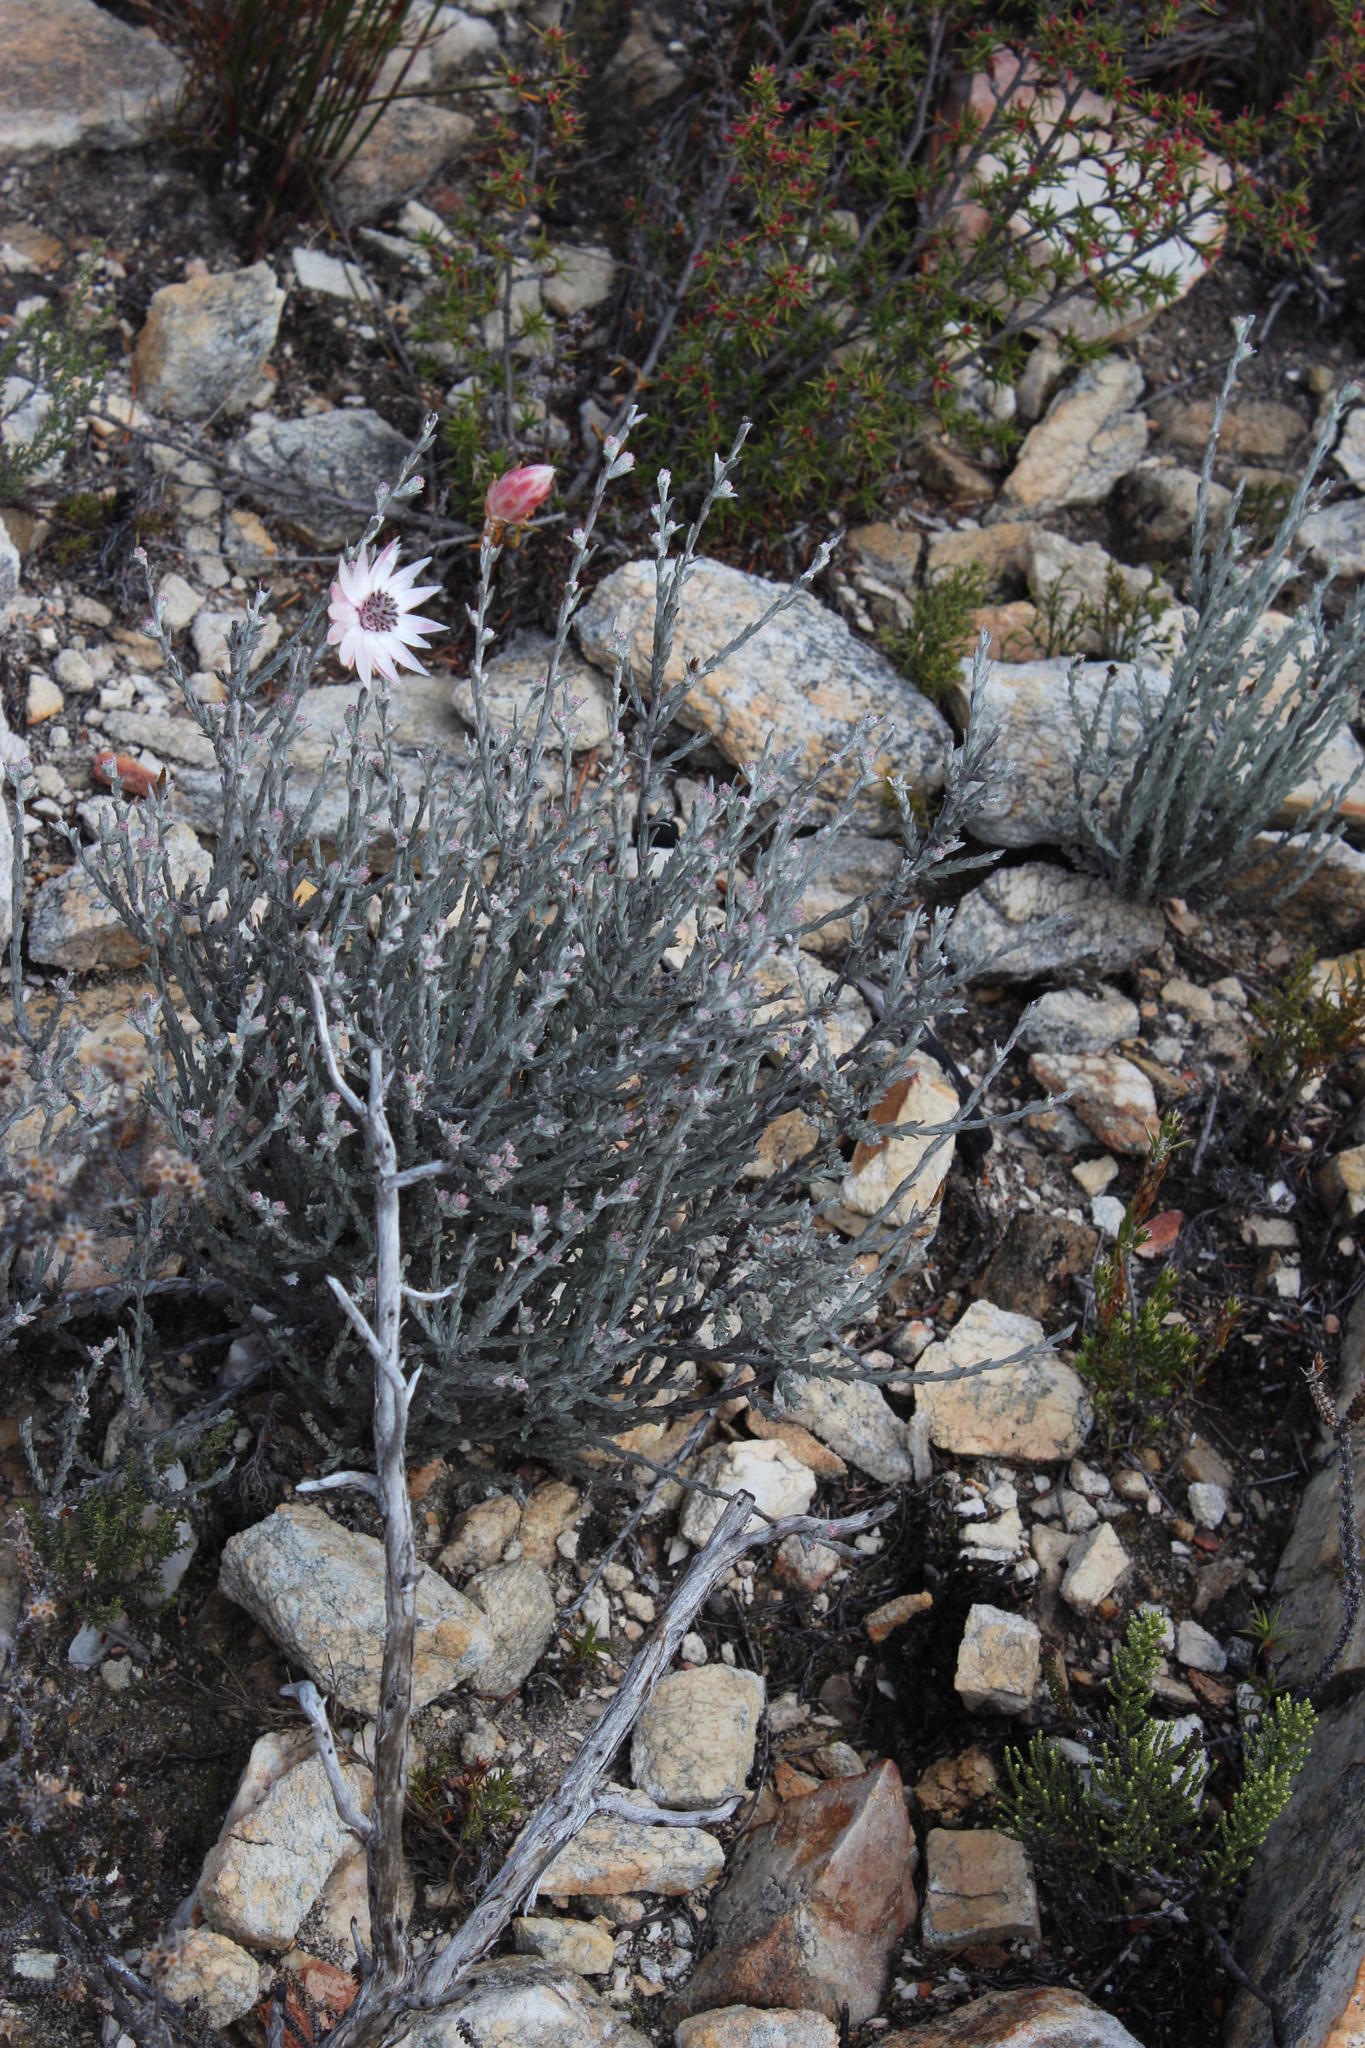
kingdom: Plantae
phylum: Tracheophyta
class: Magnoliopsida
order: Asterales
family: Asteraceae
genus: Syncarpha
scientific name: Syncarpha canescens
